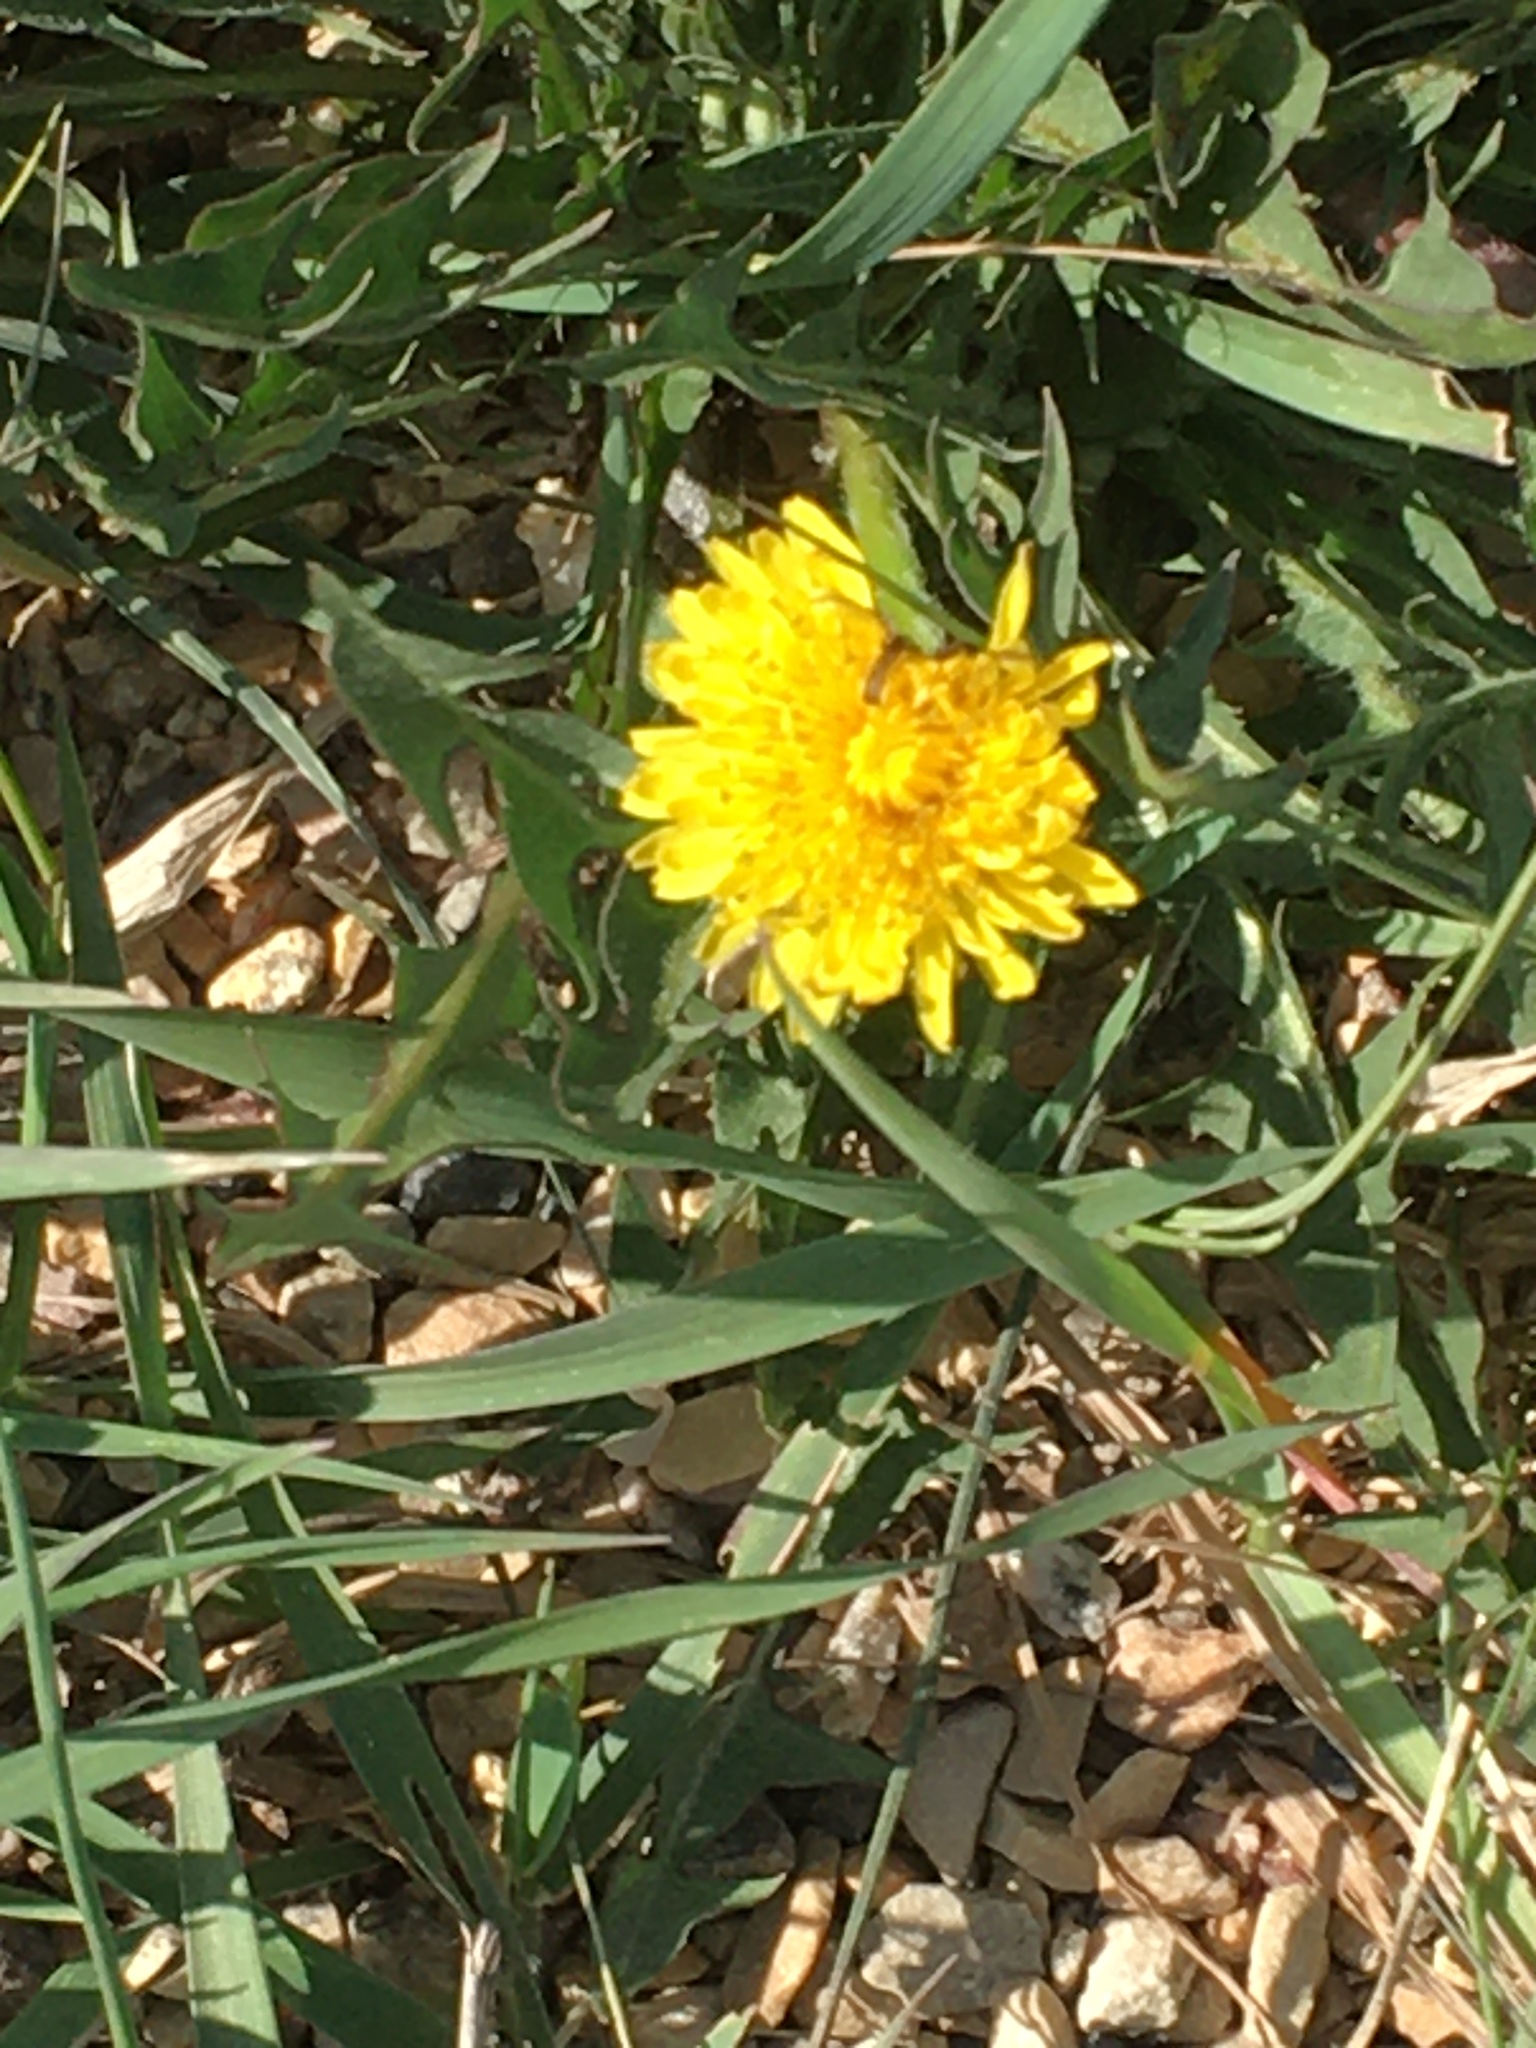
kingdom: Plantae
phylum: Tracheophyta
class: Magnoliopsida
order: Asterales
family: Asteraceae
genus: Taraxacum
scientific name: Taraxacum officinale
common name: Common dandelion
